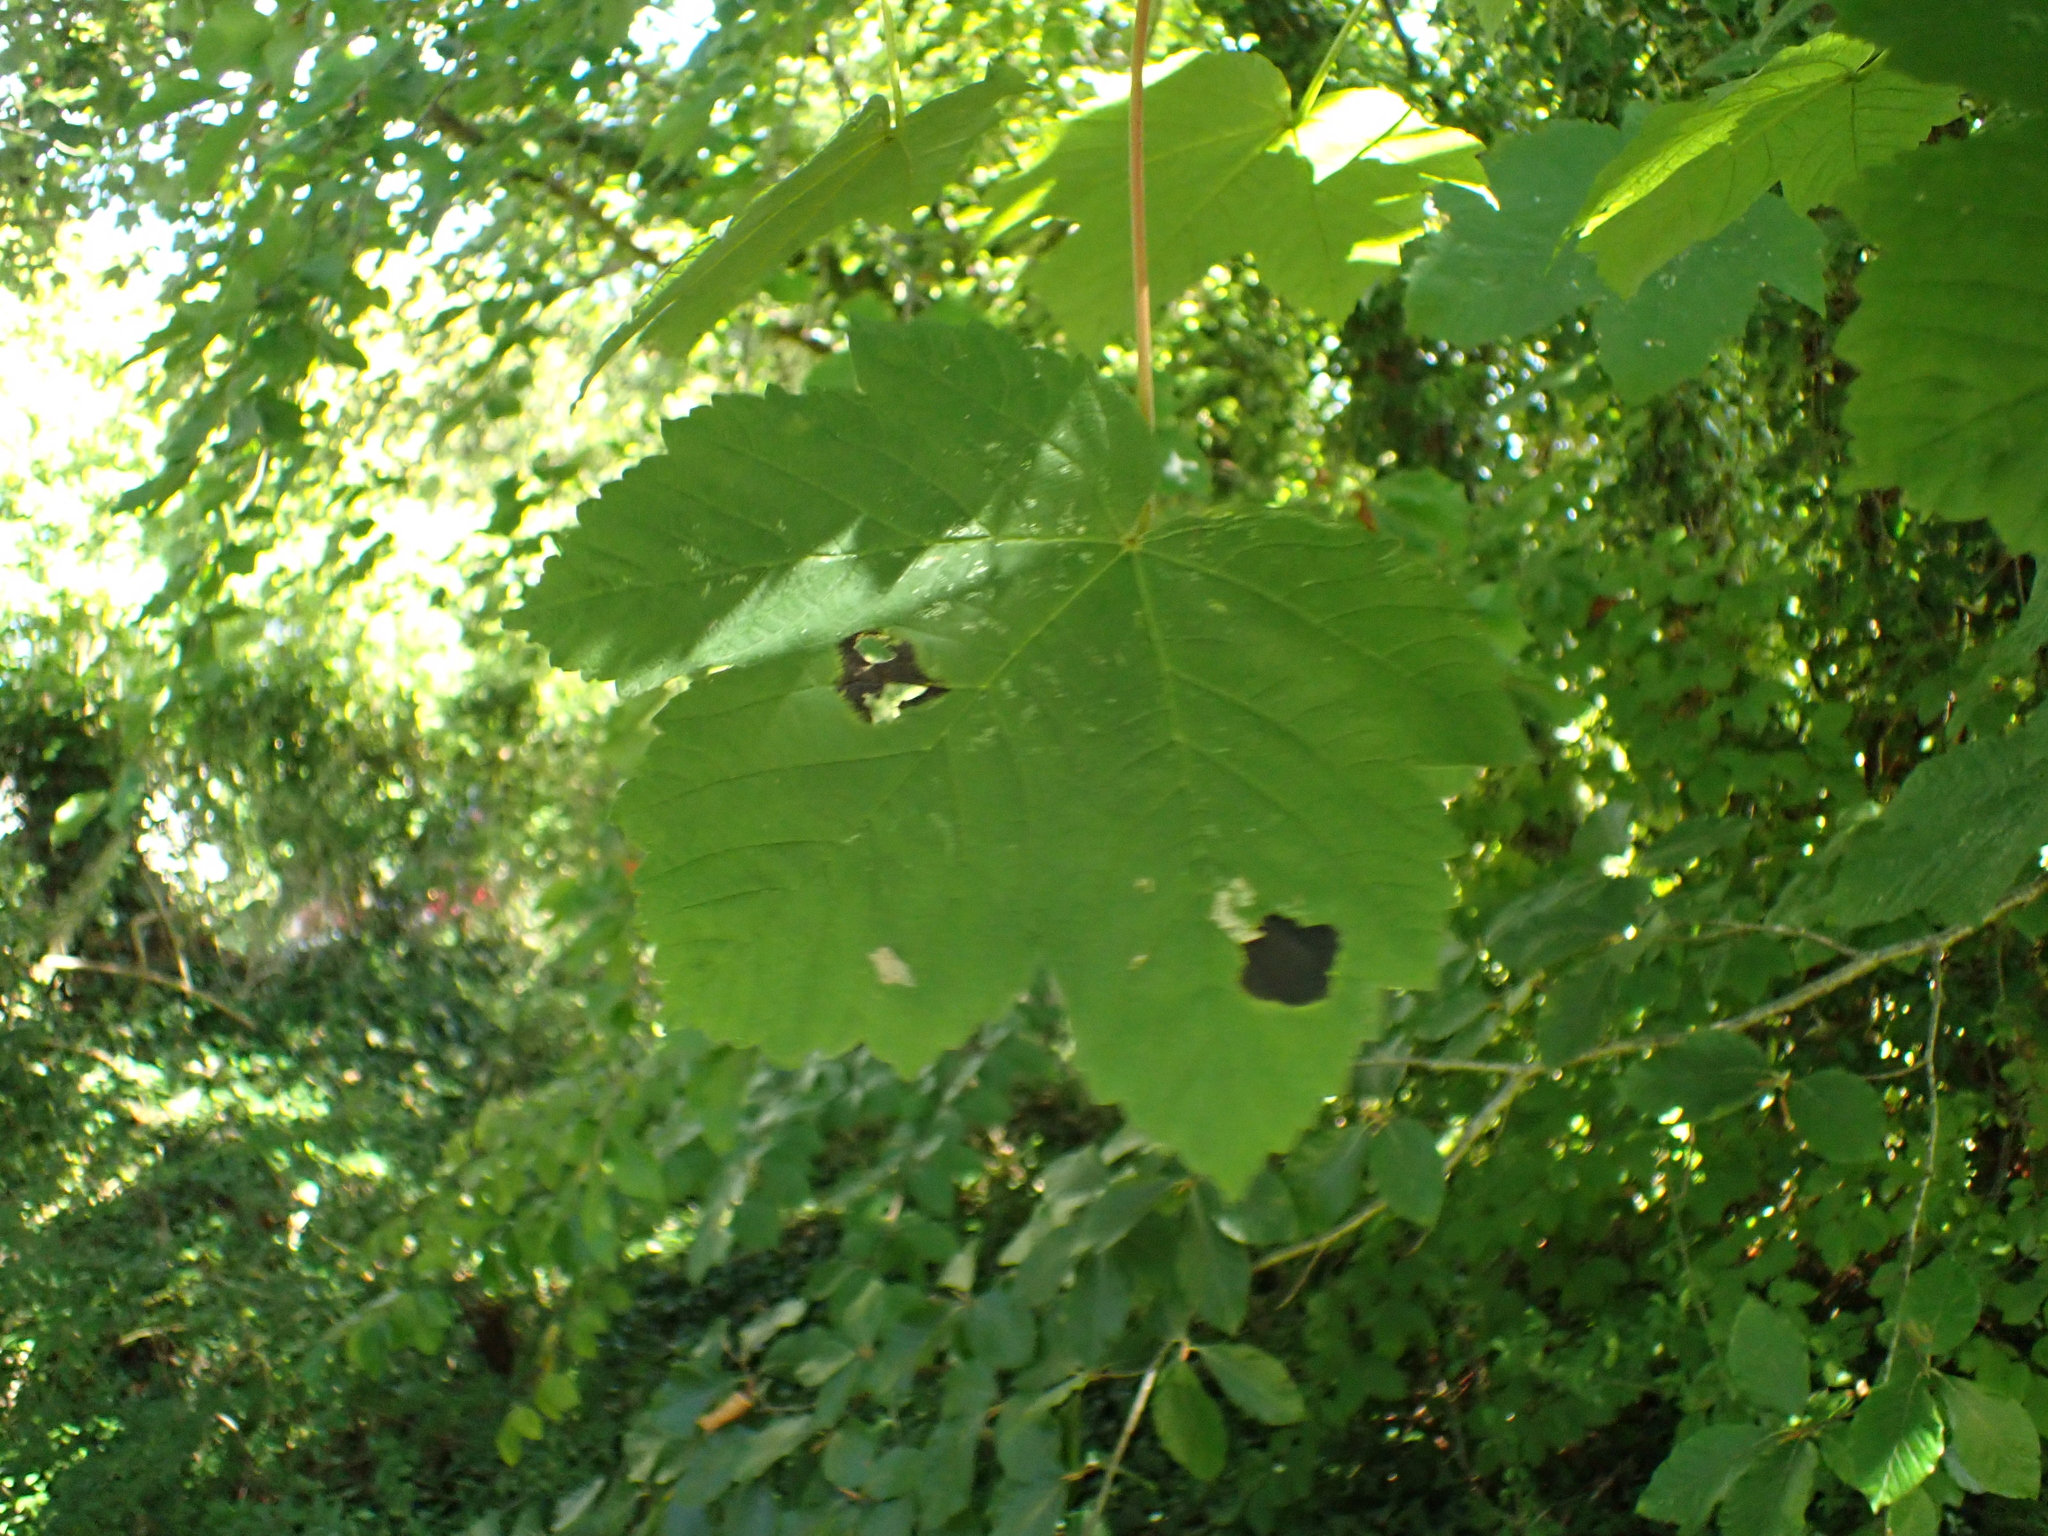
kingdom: Plantae
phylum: Tracheophyta
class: Magnoliopsida
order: Sapindales
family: Sapindaceae
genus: Acer
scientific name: Acer pseudoplatanus
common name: Sycamore
